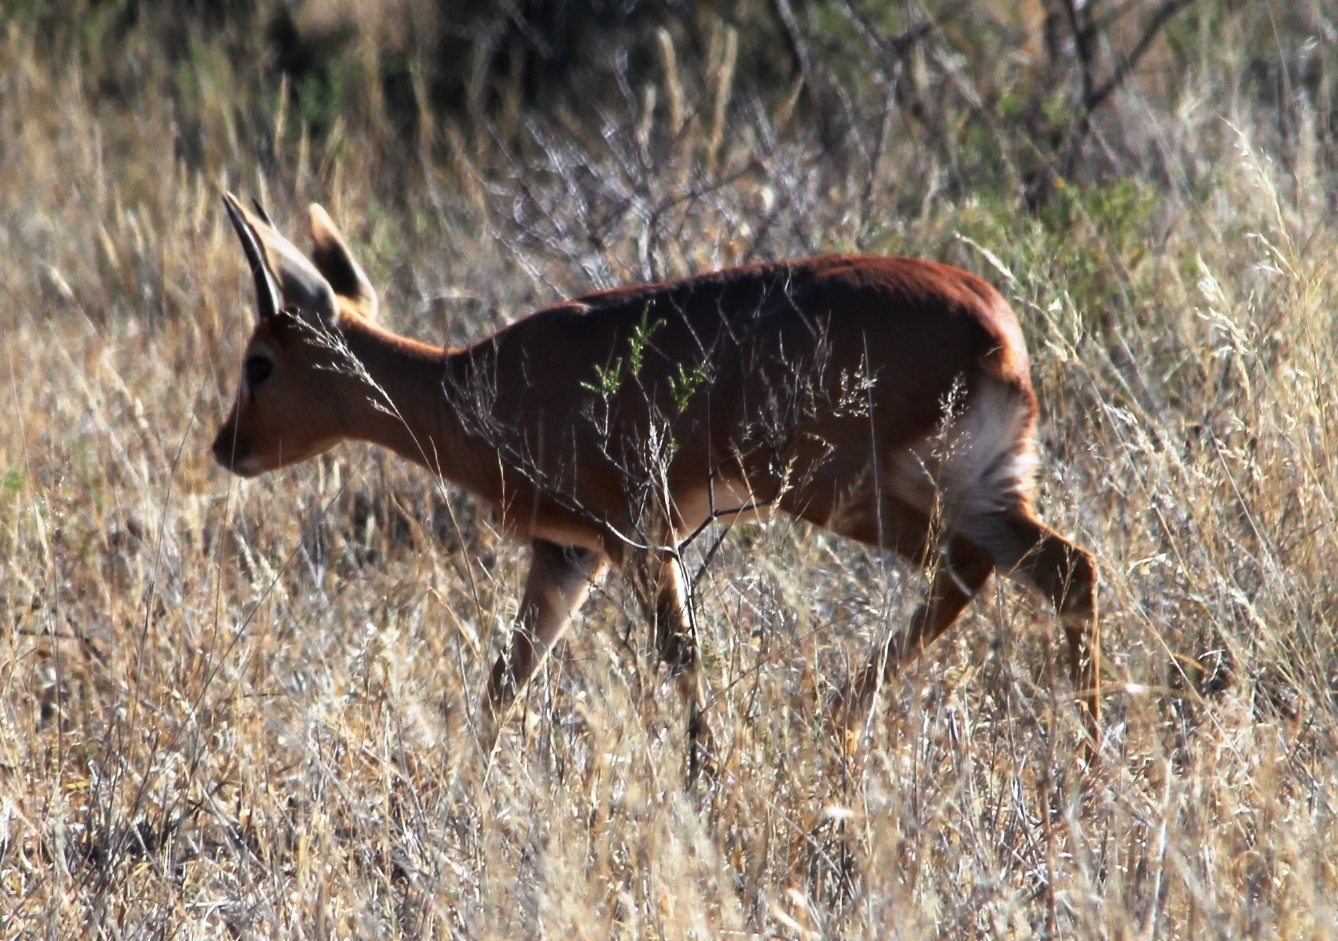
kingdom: Animalia
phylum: Chordata
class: Mammalia
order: Artiodactyla
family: Bovidae
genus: Raphicerus
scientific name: Raphicerus campestris
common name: Steenbok
